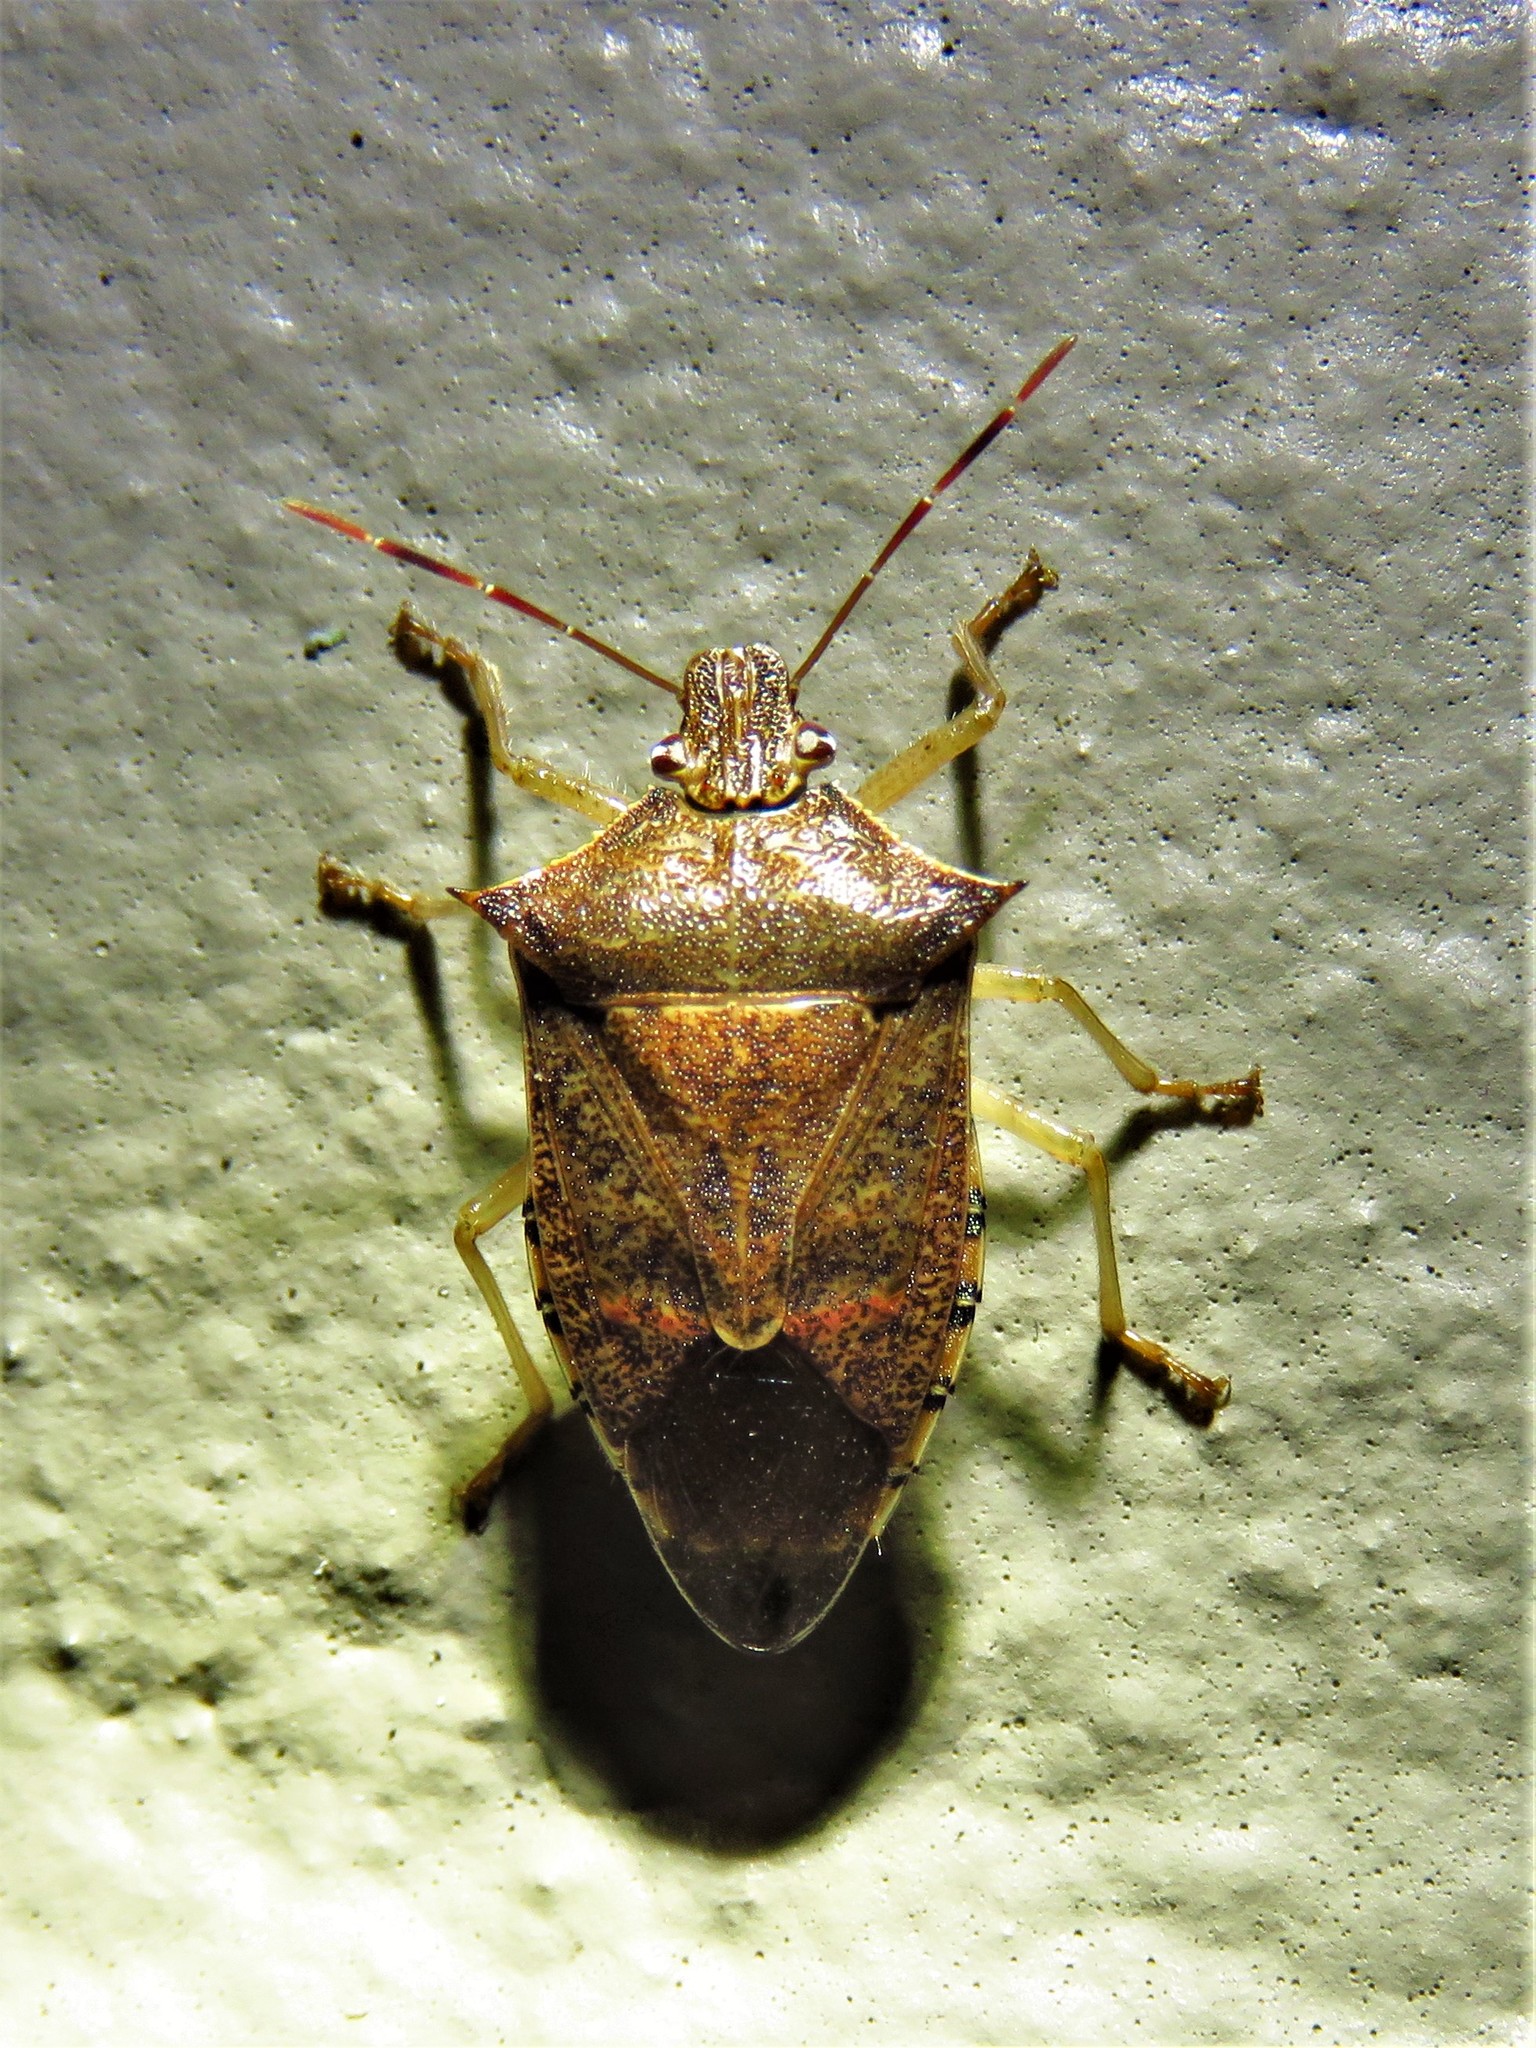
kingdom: Animalia
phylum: Arthropoda
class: Insecta
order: Hemiptera
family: Pentatomidae
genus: Podisus
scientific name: Podisus maculiventris
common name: Spined soldier bug
